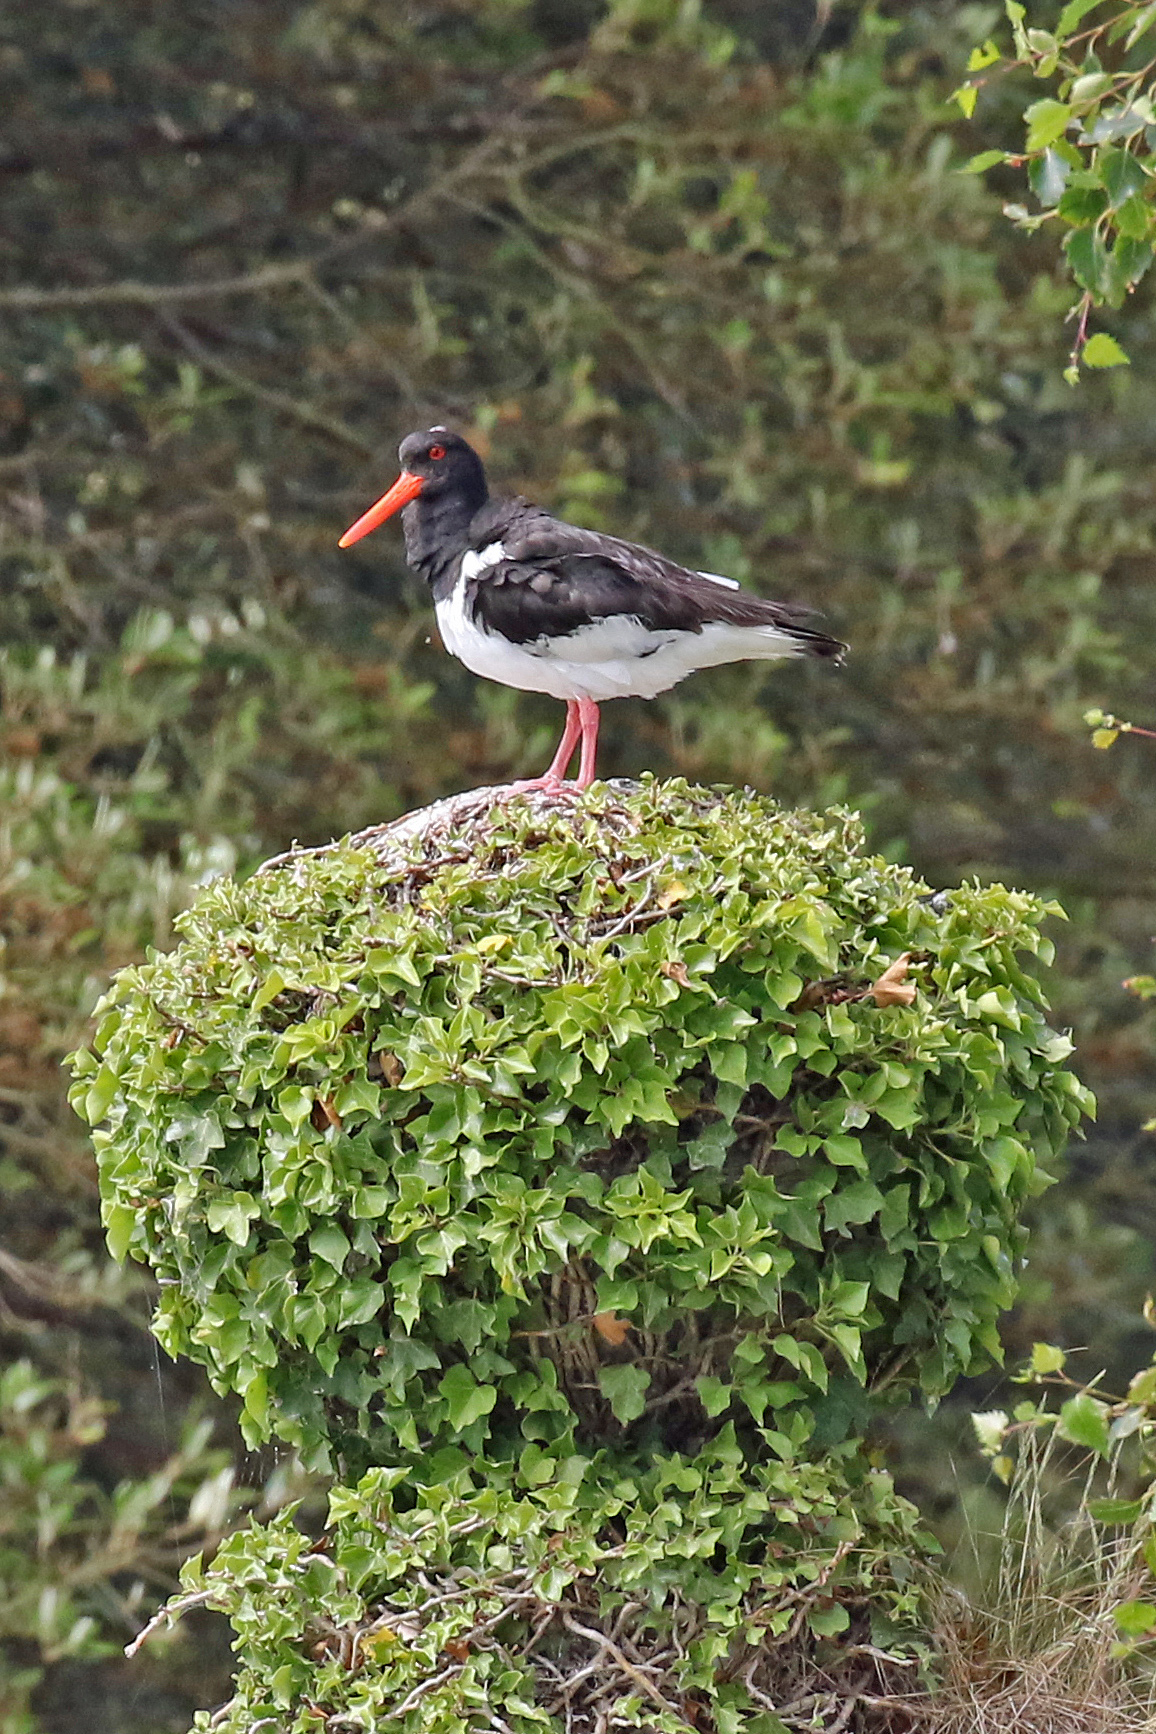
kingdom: Animalia
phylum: Chordata
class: Aves
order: Charadriiformes
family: Haematopodidae
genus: Haematopus
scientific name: Haematopus ostralegus
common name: Eurasian oystercatcher
